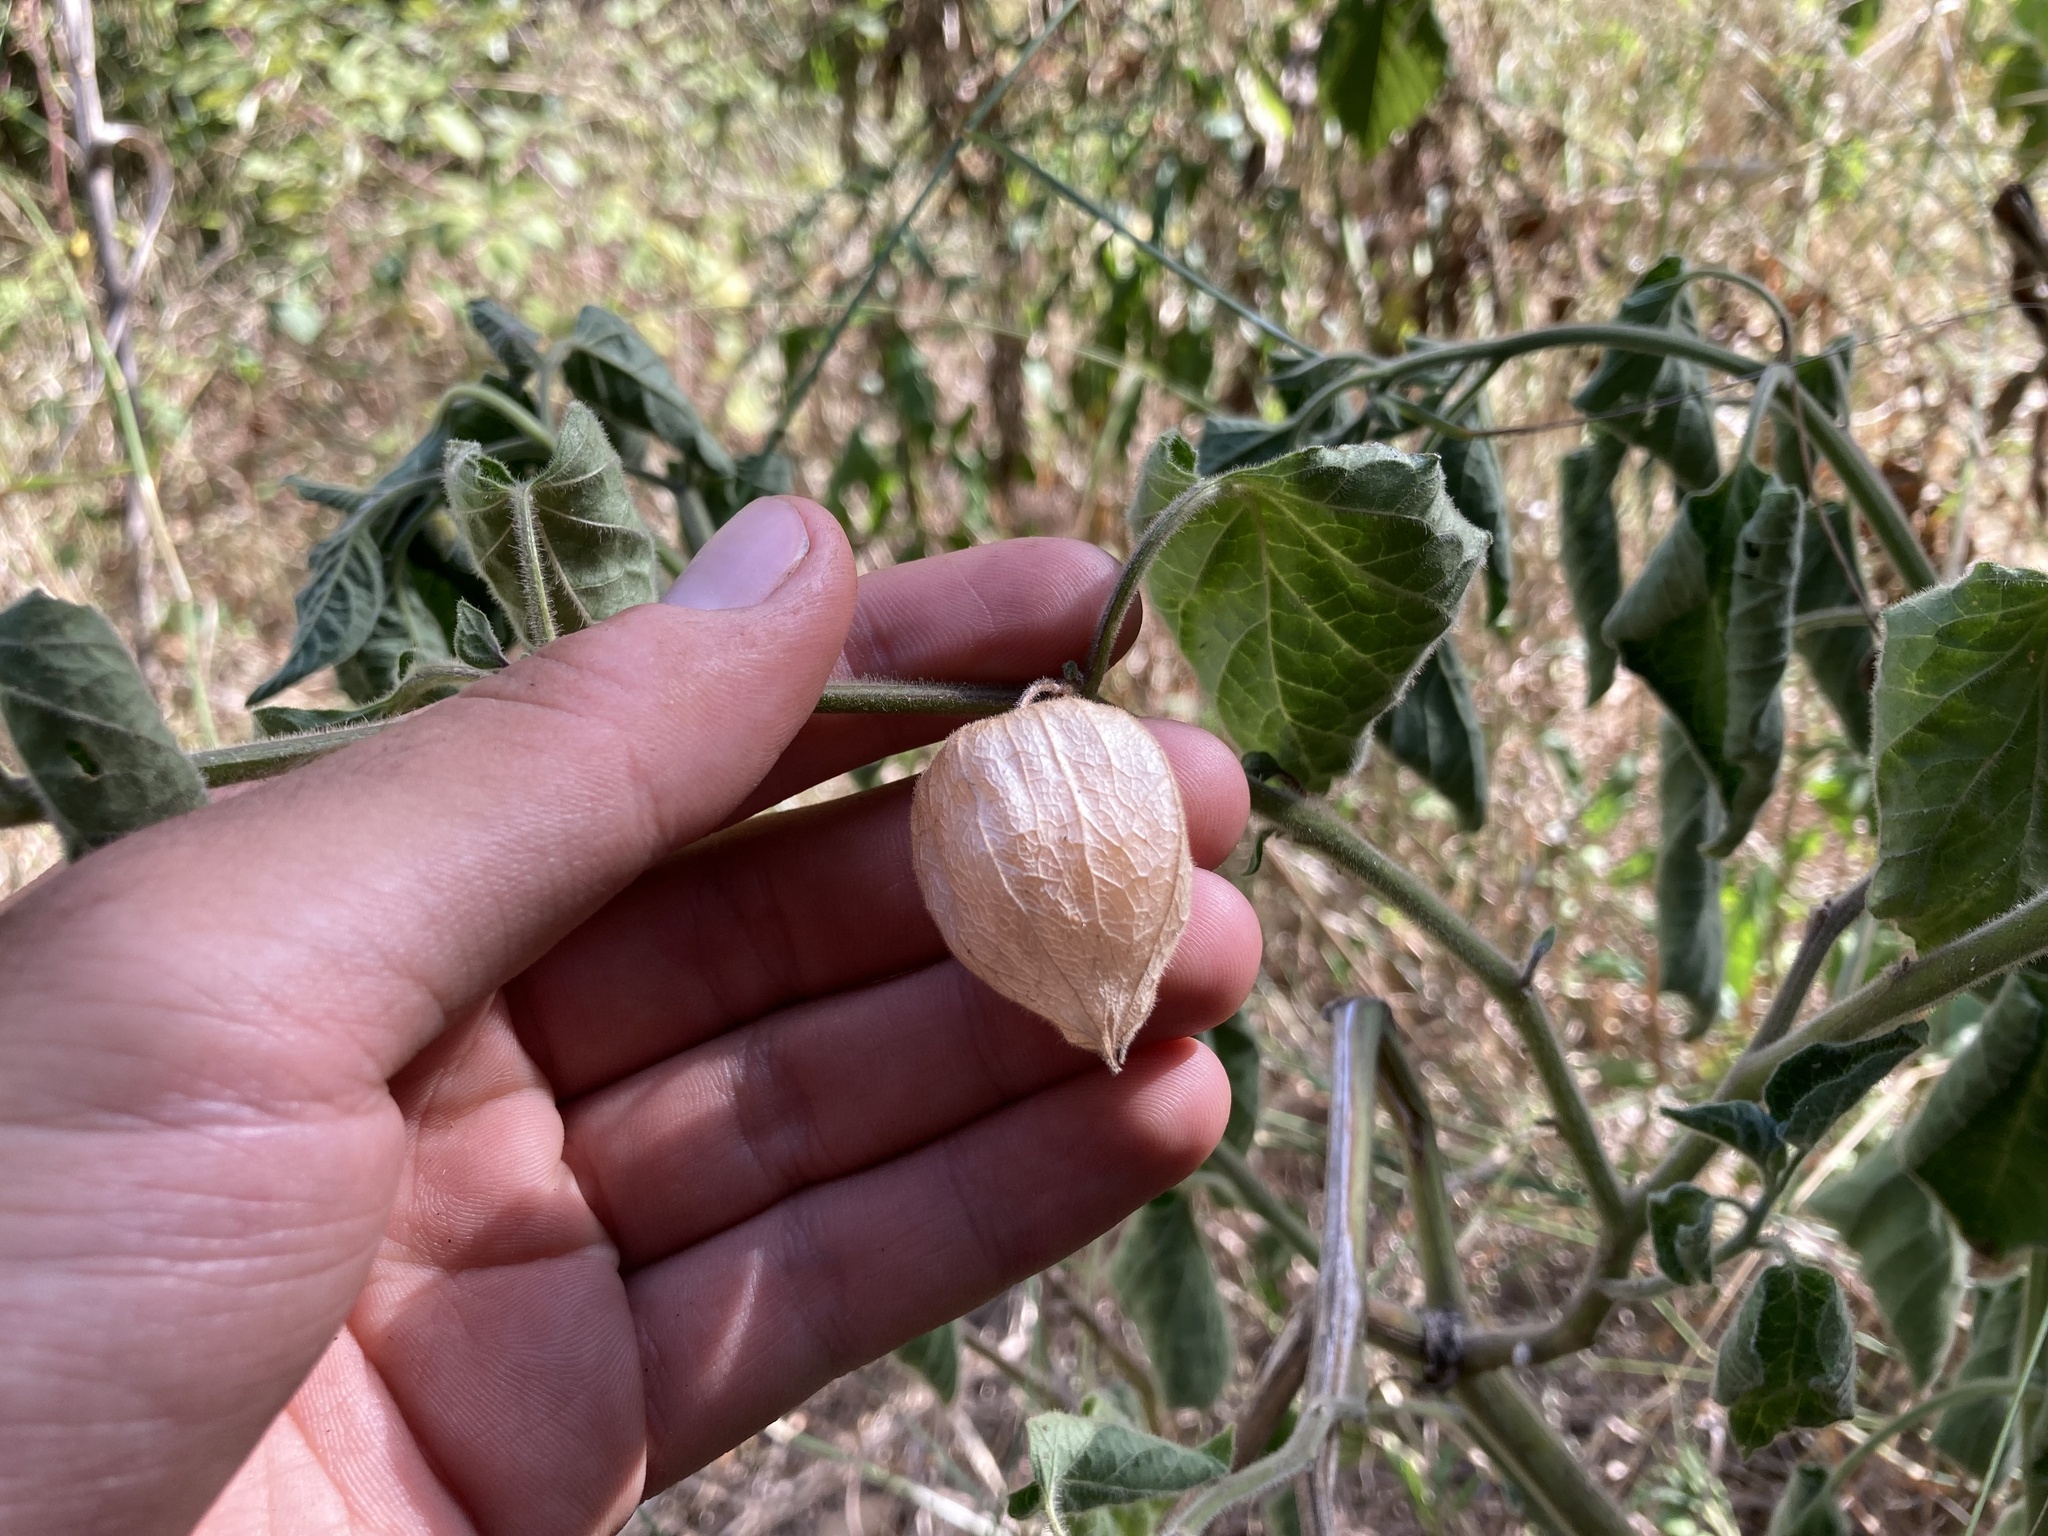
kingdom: Plantae
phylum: Tracheophyta
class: Magnoliopsida
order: Solanales
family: Solanaceae
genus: Physalis
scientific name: Physalis peruviana
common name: Cape-gooseberry
